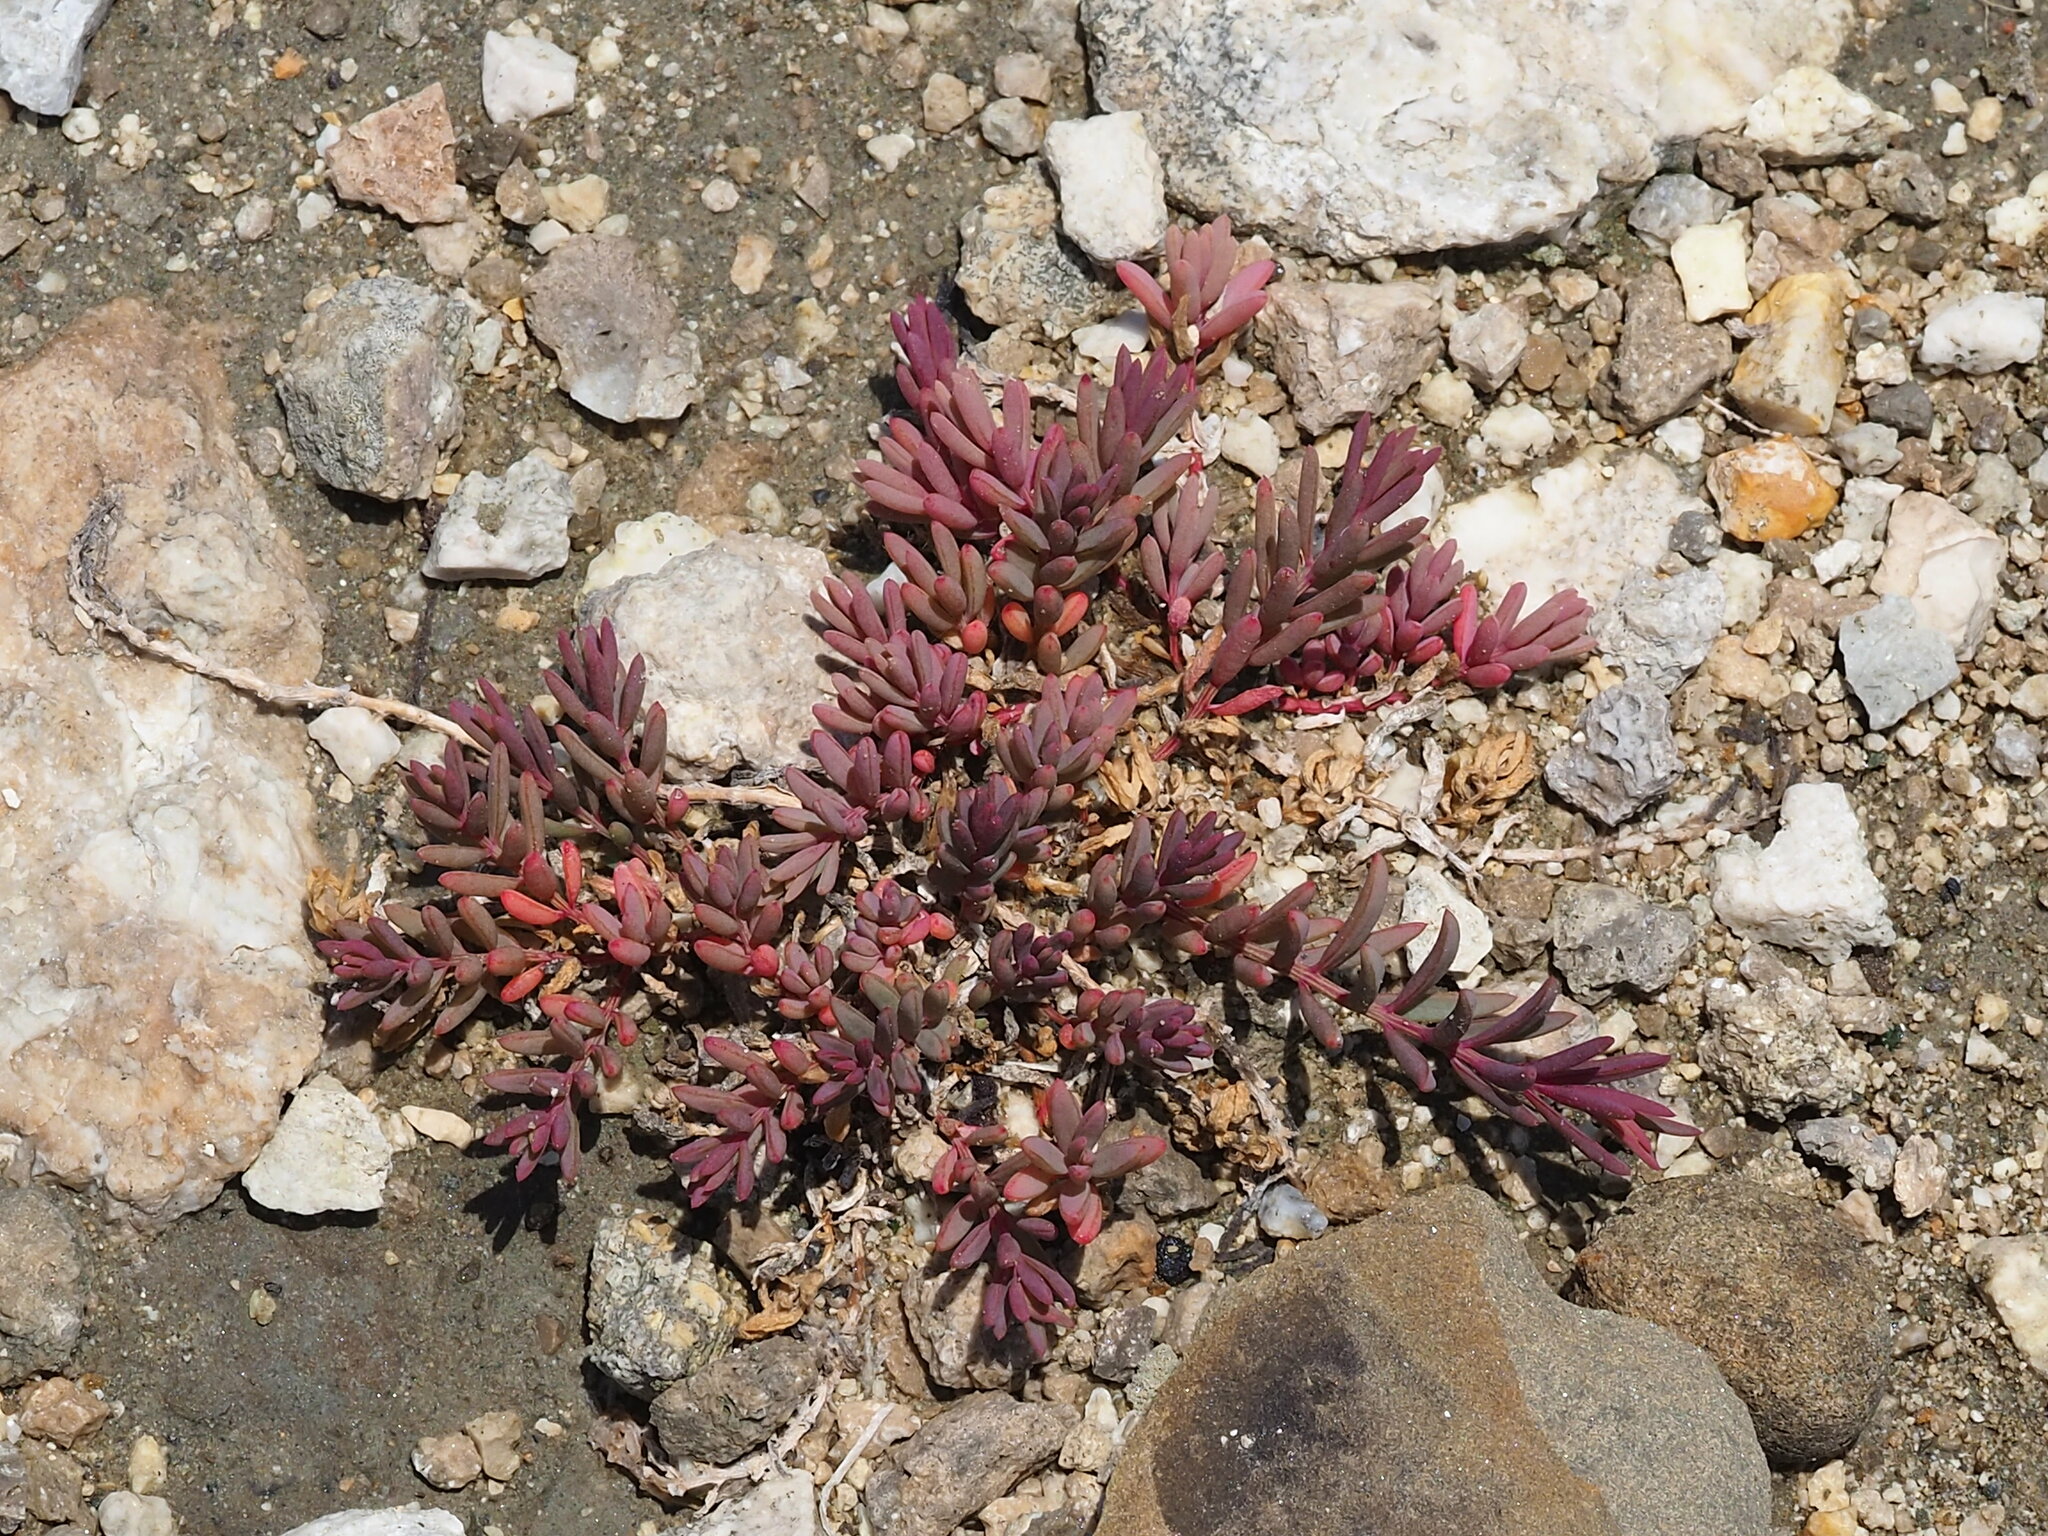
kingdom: Plantae
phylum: Tracheophyta
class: Magnoliopsida
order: Caryophyllales
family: Amaranthaceae
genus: Suaeda
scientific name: Suaeda maritima
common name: Annual sea-blite
